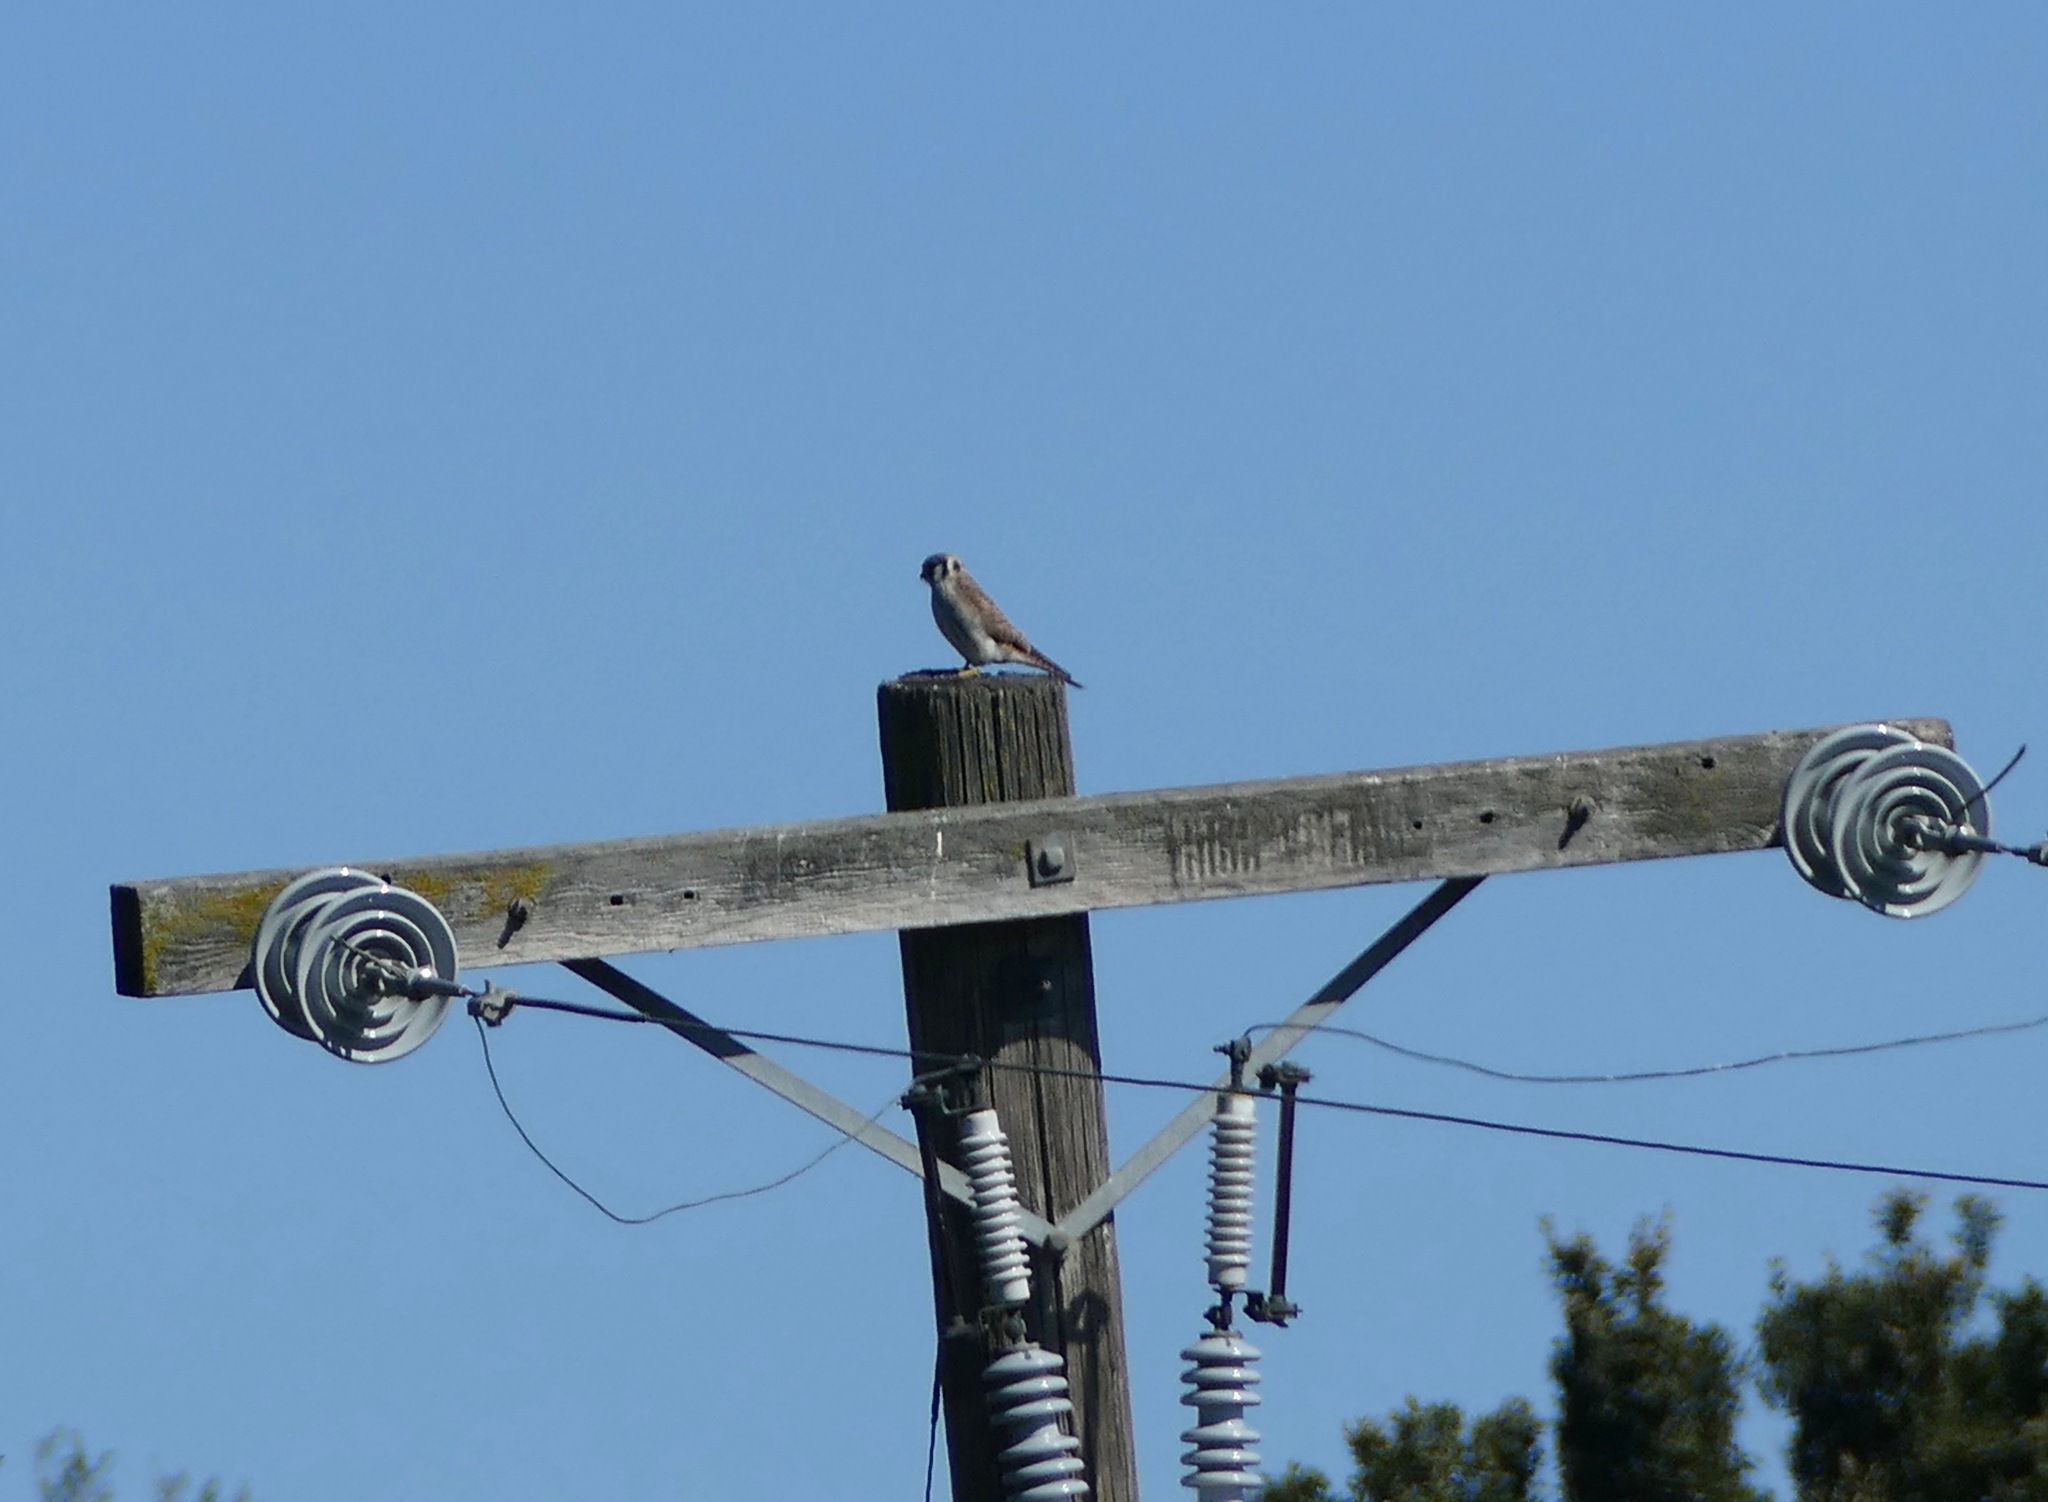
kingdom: Animalia
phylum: Chordata
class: Aves
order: Falconiformes
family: Falconidae
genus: Falco
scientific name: Falco sparverius
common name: American kestrel
